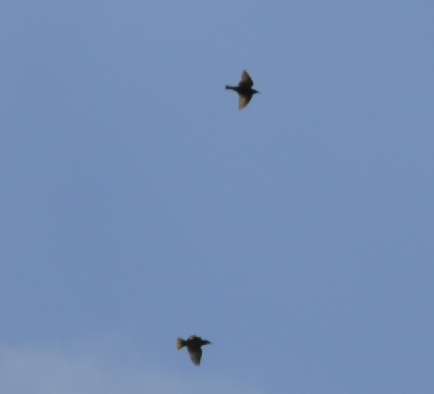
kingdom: Animalia
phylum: Chordata
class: Aves
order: Passeriformes
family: Sturnidae
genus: Sturnus
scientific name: Sturnus vulgaris
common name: Common starling
